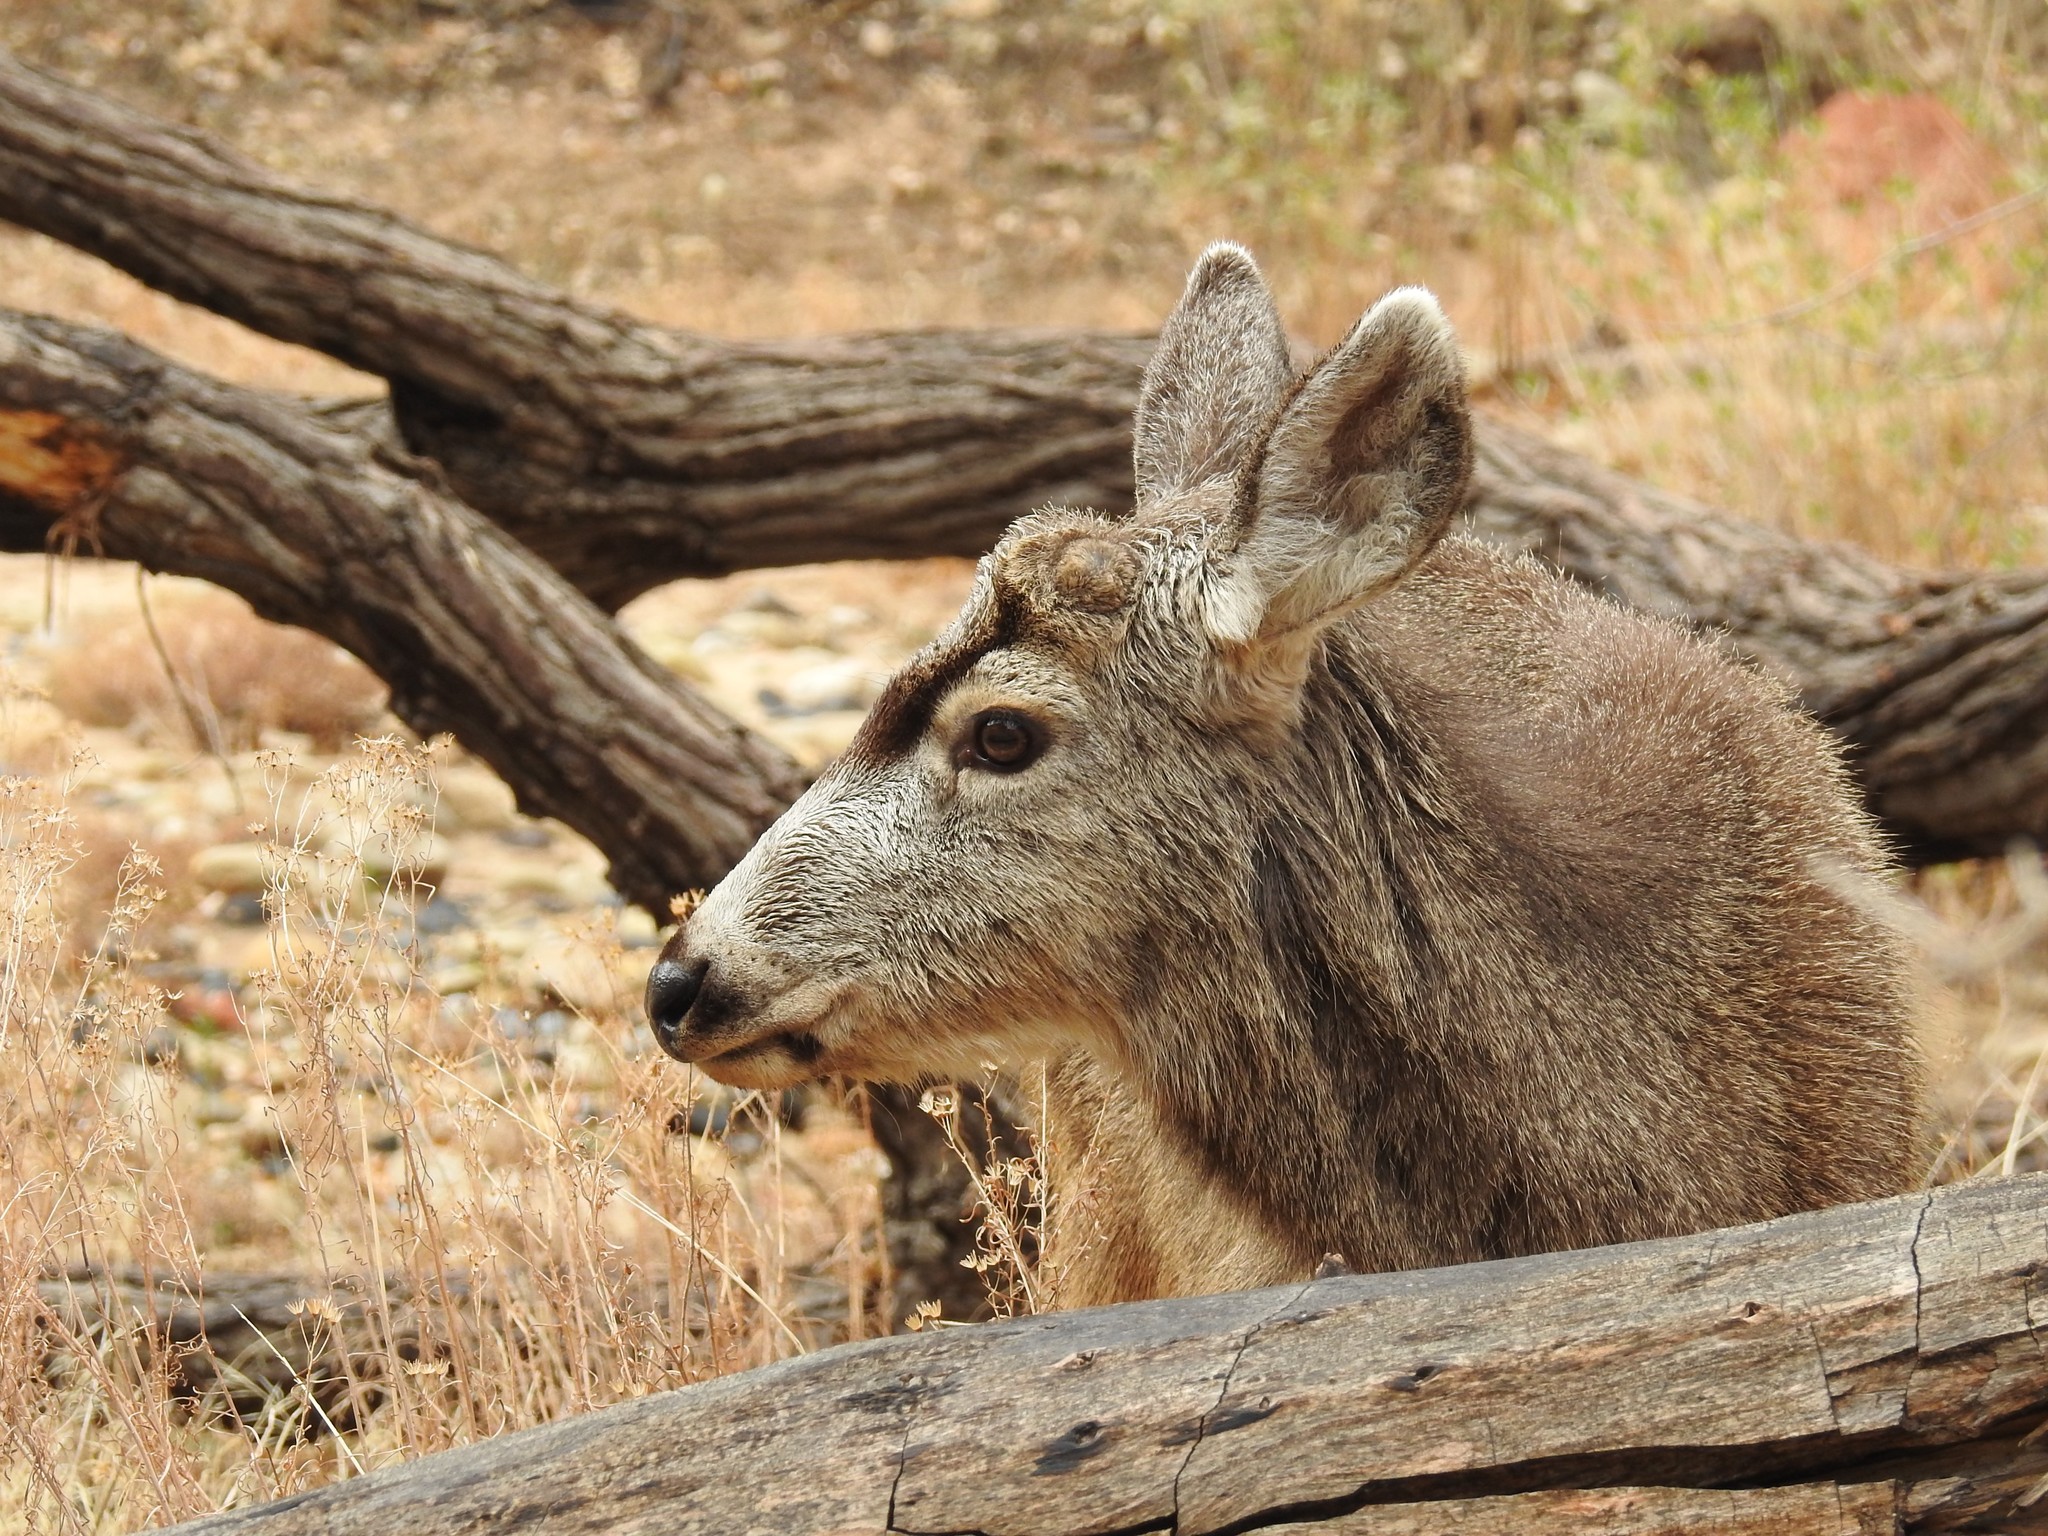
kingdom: Animalia
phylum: Chordata
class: Mammalia
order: Artiodactyla
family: Cervidae
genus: Odocoileus
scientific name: Odocoileus hemionus
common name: Mule deer
